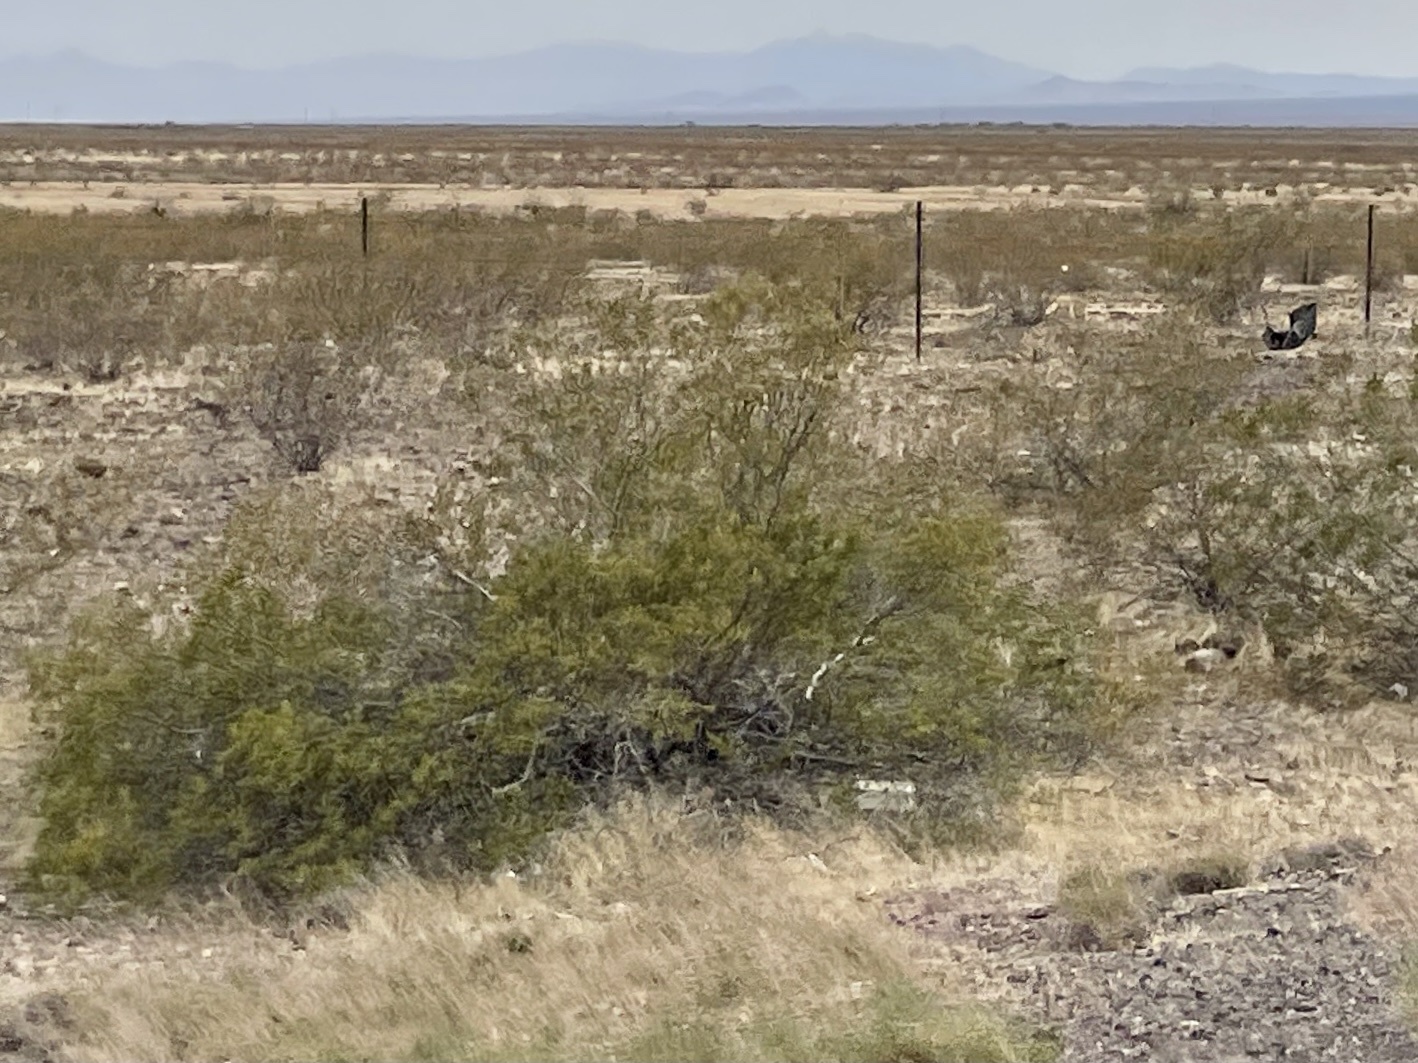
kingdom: Plantae
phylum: Tracheophyta
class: Magnoliopsida
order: Zygophyllales
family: Zygophyllaceae
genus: Larrea
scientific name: Larrea tridentata
